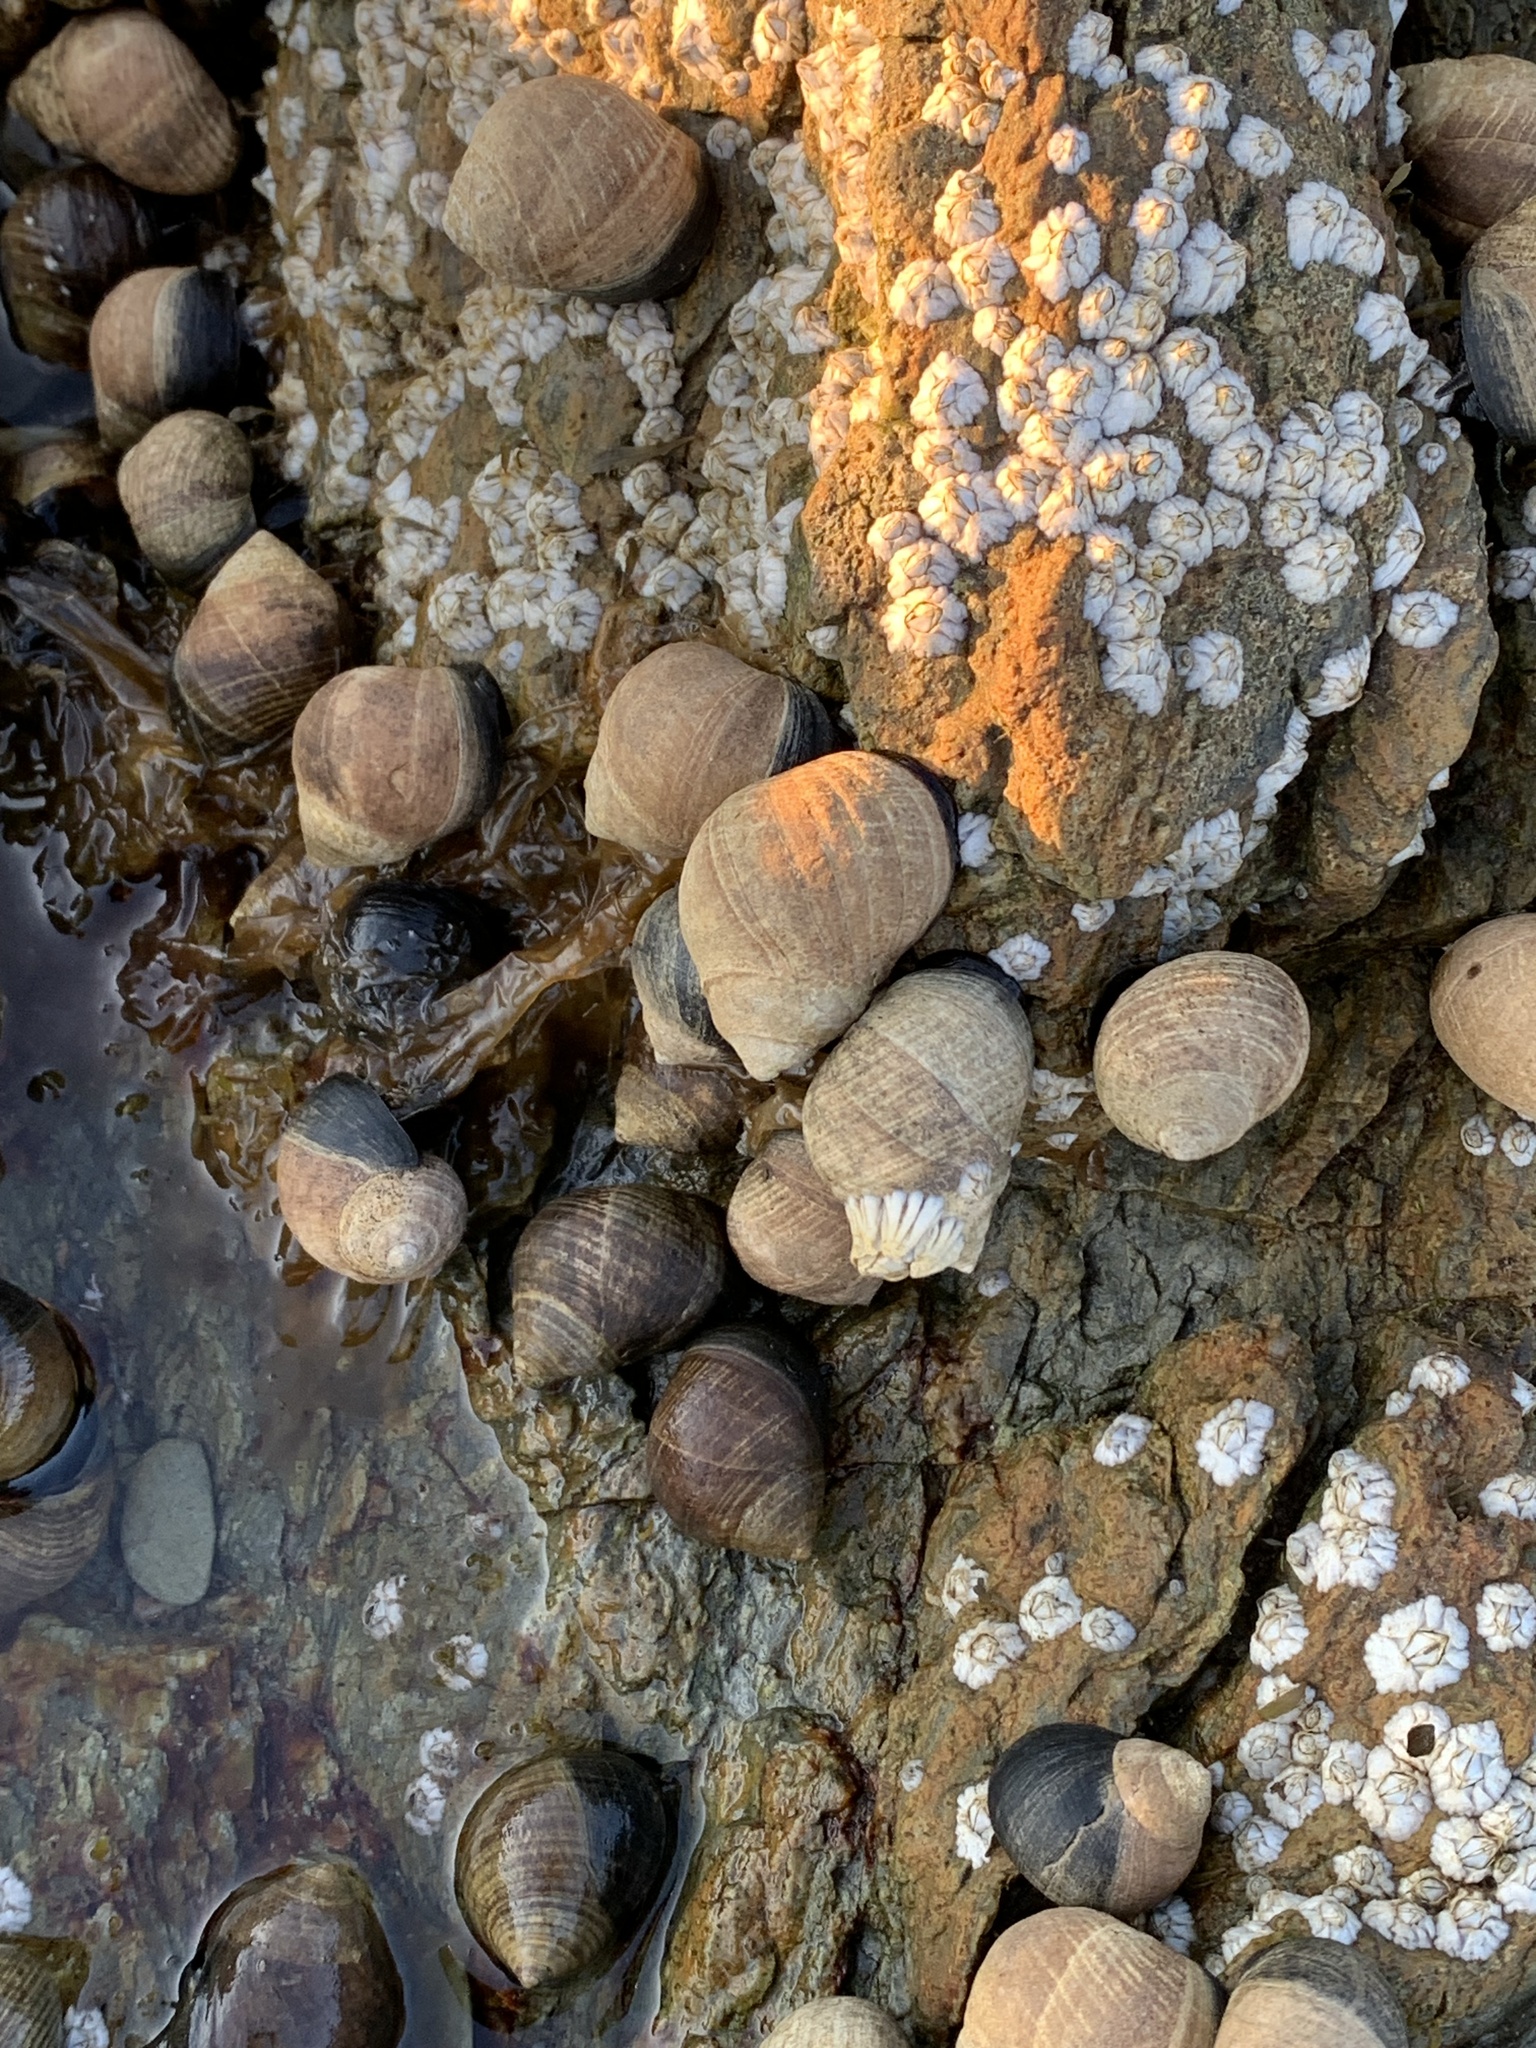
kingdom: Animalia
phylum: Mollusca
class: Gastropoda
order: Littorinimorpha
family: Littorinidae
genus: Littorina
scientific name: Littorina littorea
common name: Common periwinkle
